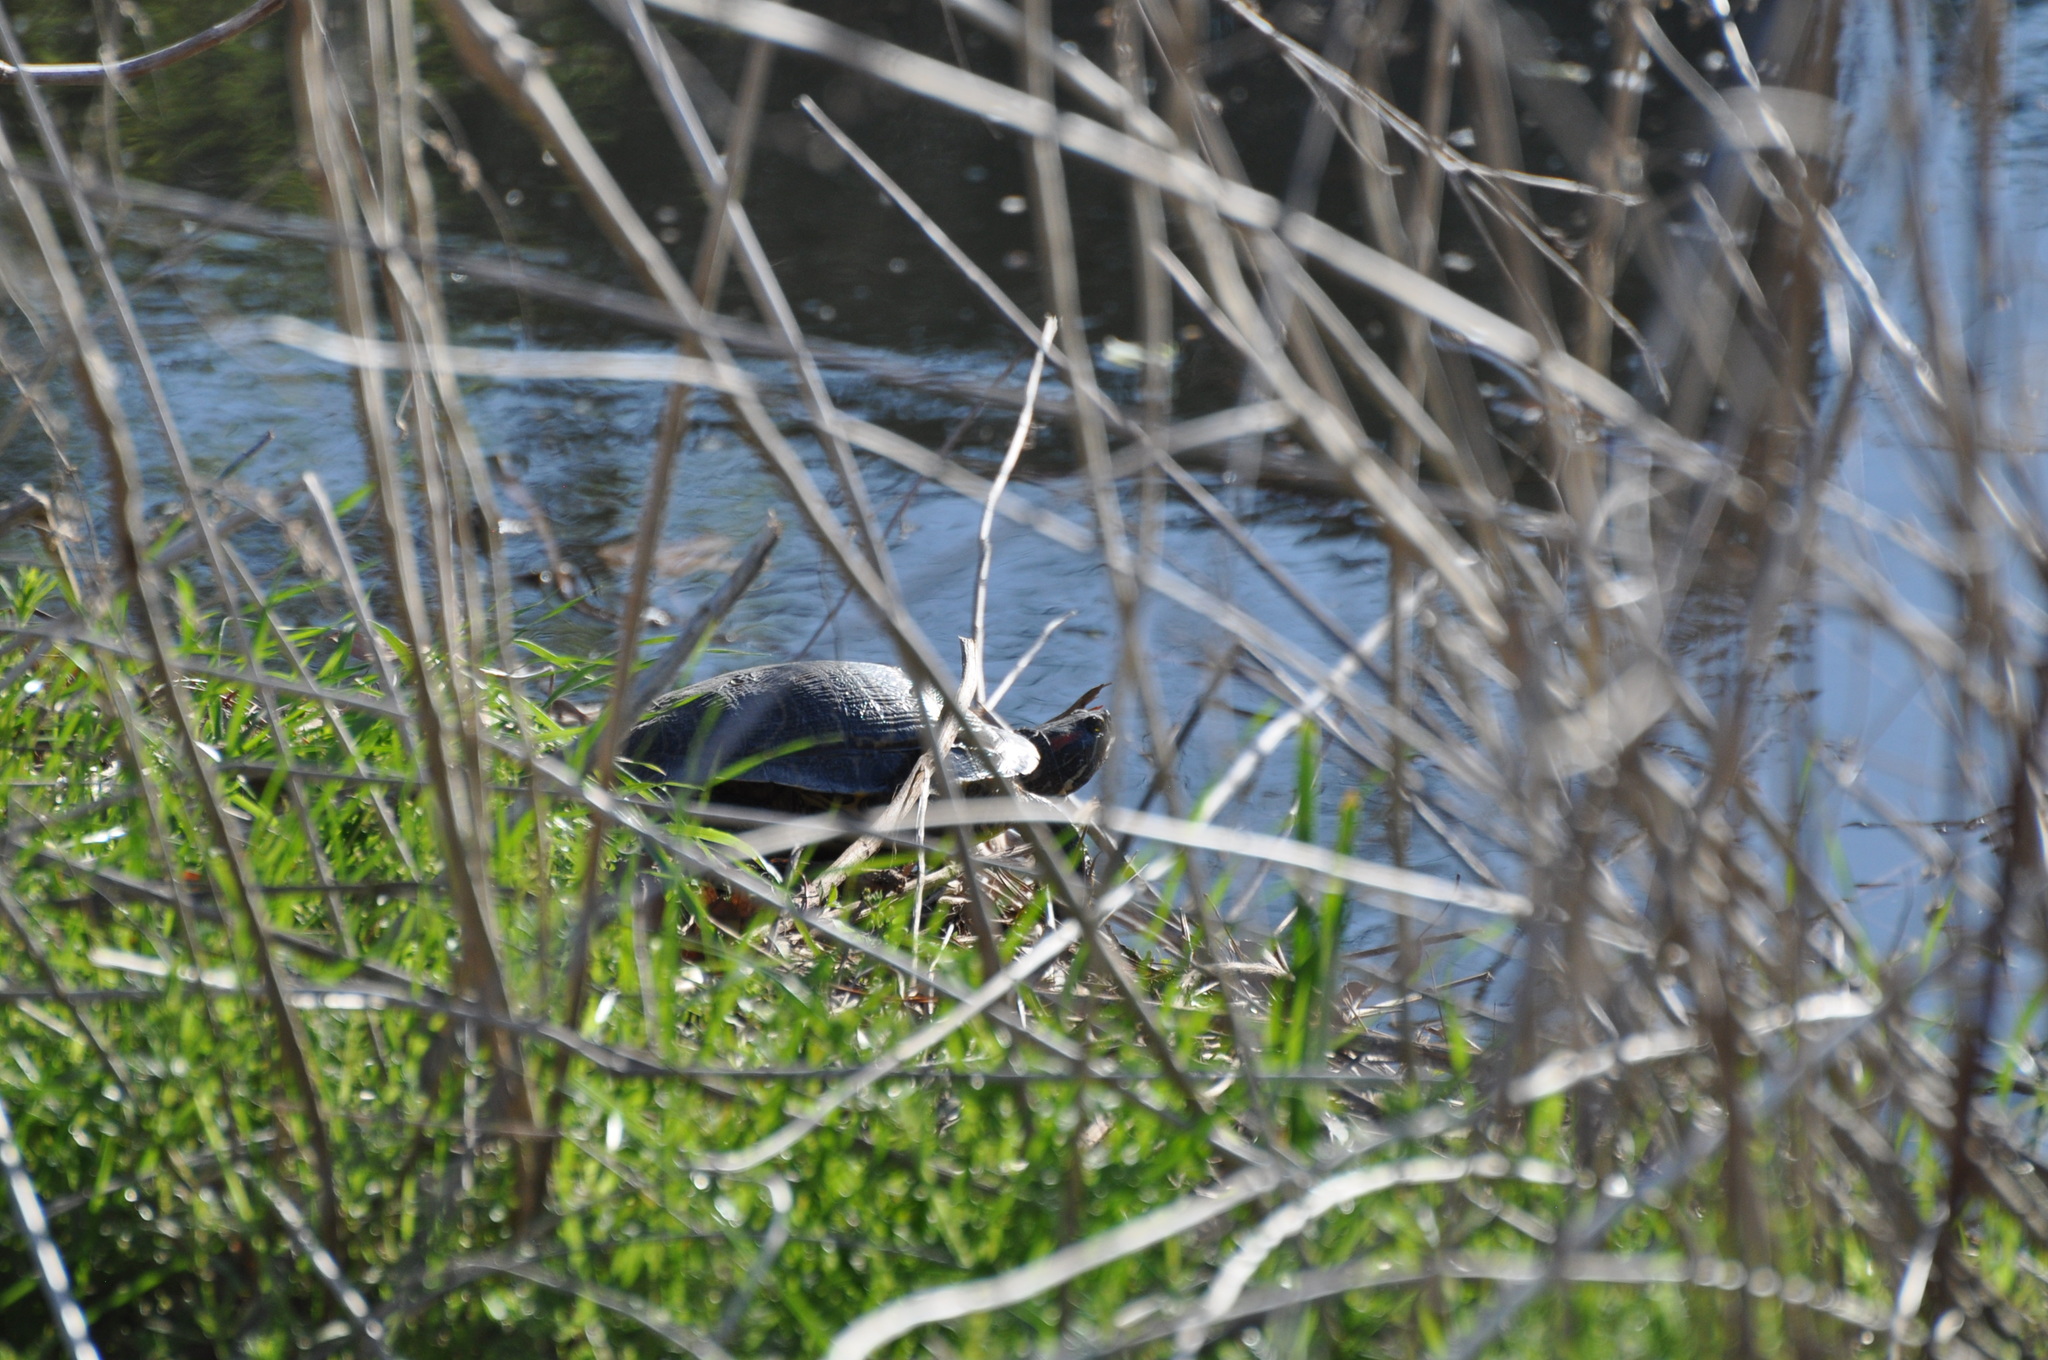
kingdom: Animalia
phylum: Chordata
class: Testudines
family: Emydidae
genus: Trachemys
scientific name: Trachemys scripta
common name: Slider
